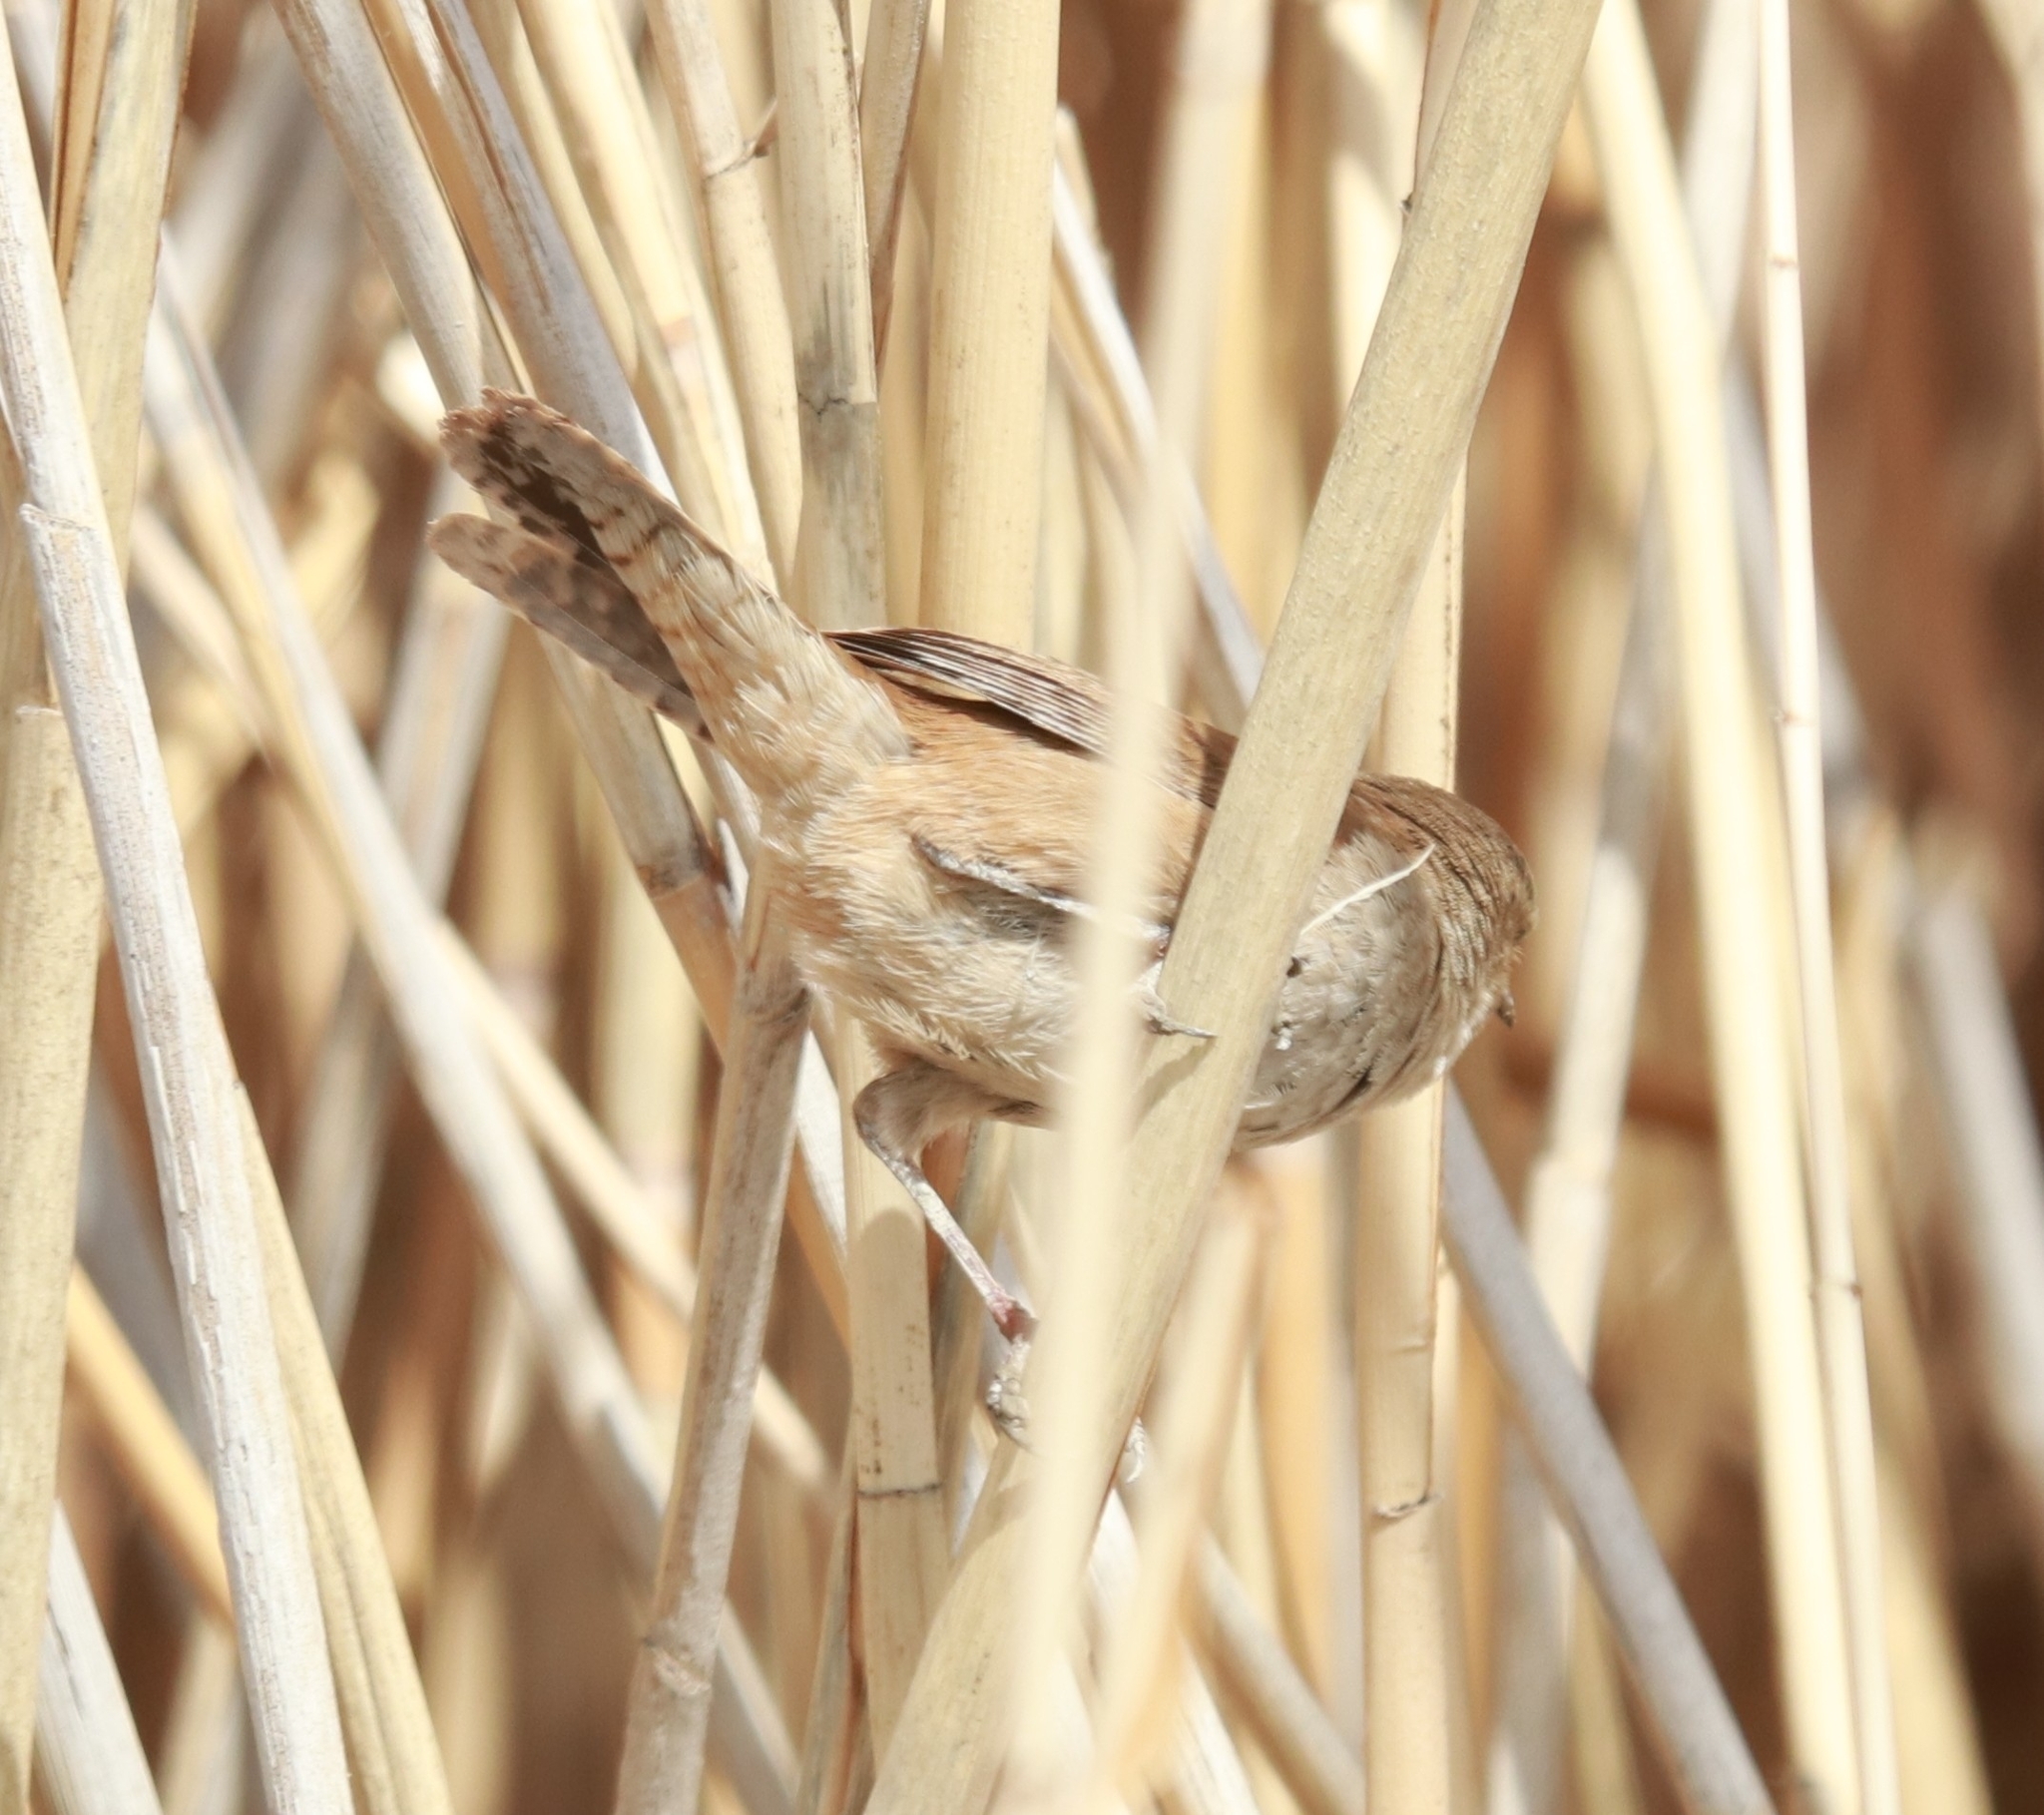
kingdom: Animalia
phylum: Chordata
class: Aves
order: Passeriformes
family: Troglodytidae
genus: Cistothorus
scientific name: Cistothorus palustris
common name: Marsh wren
